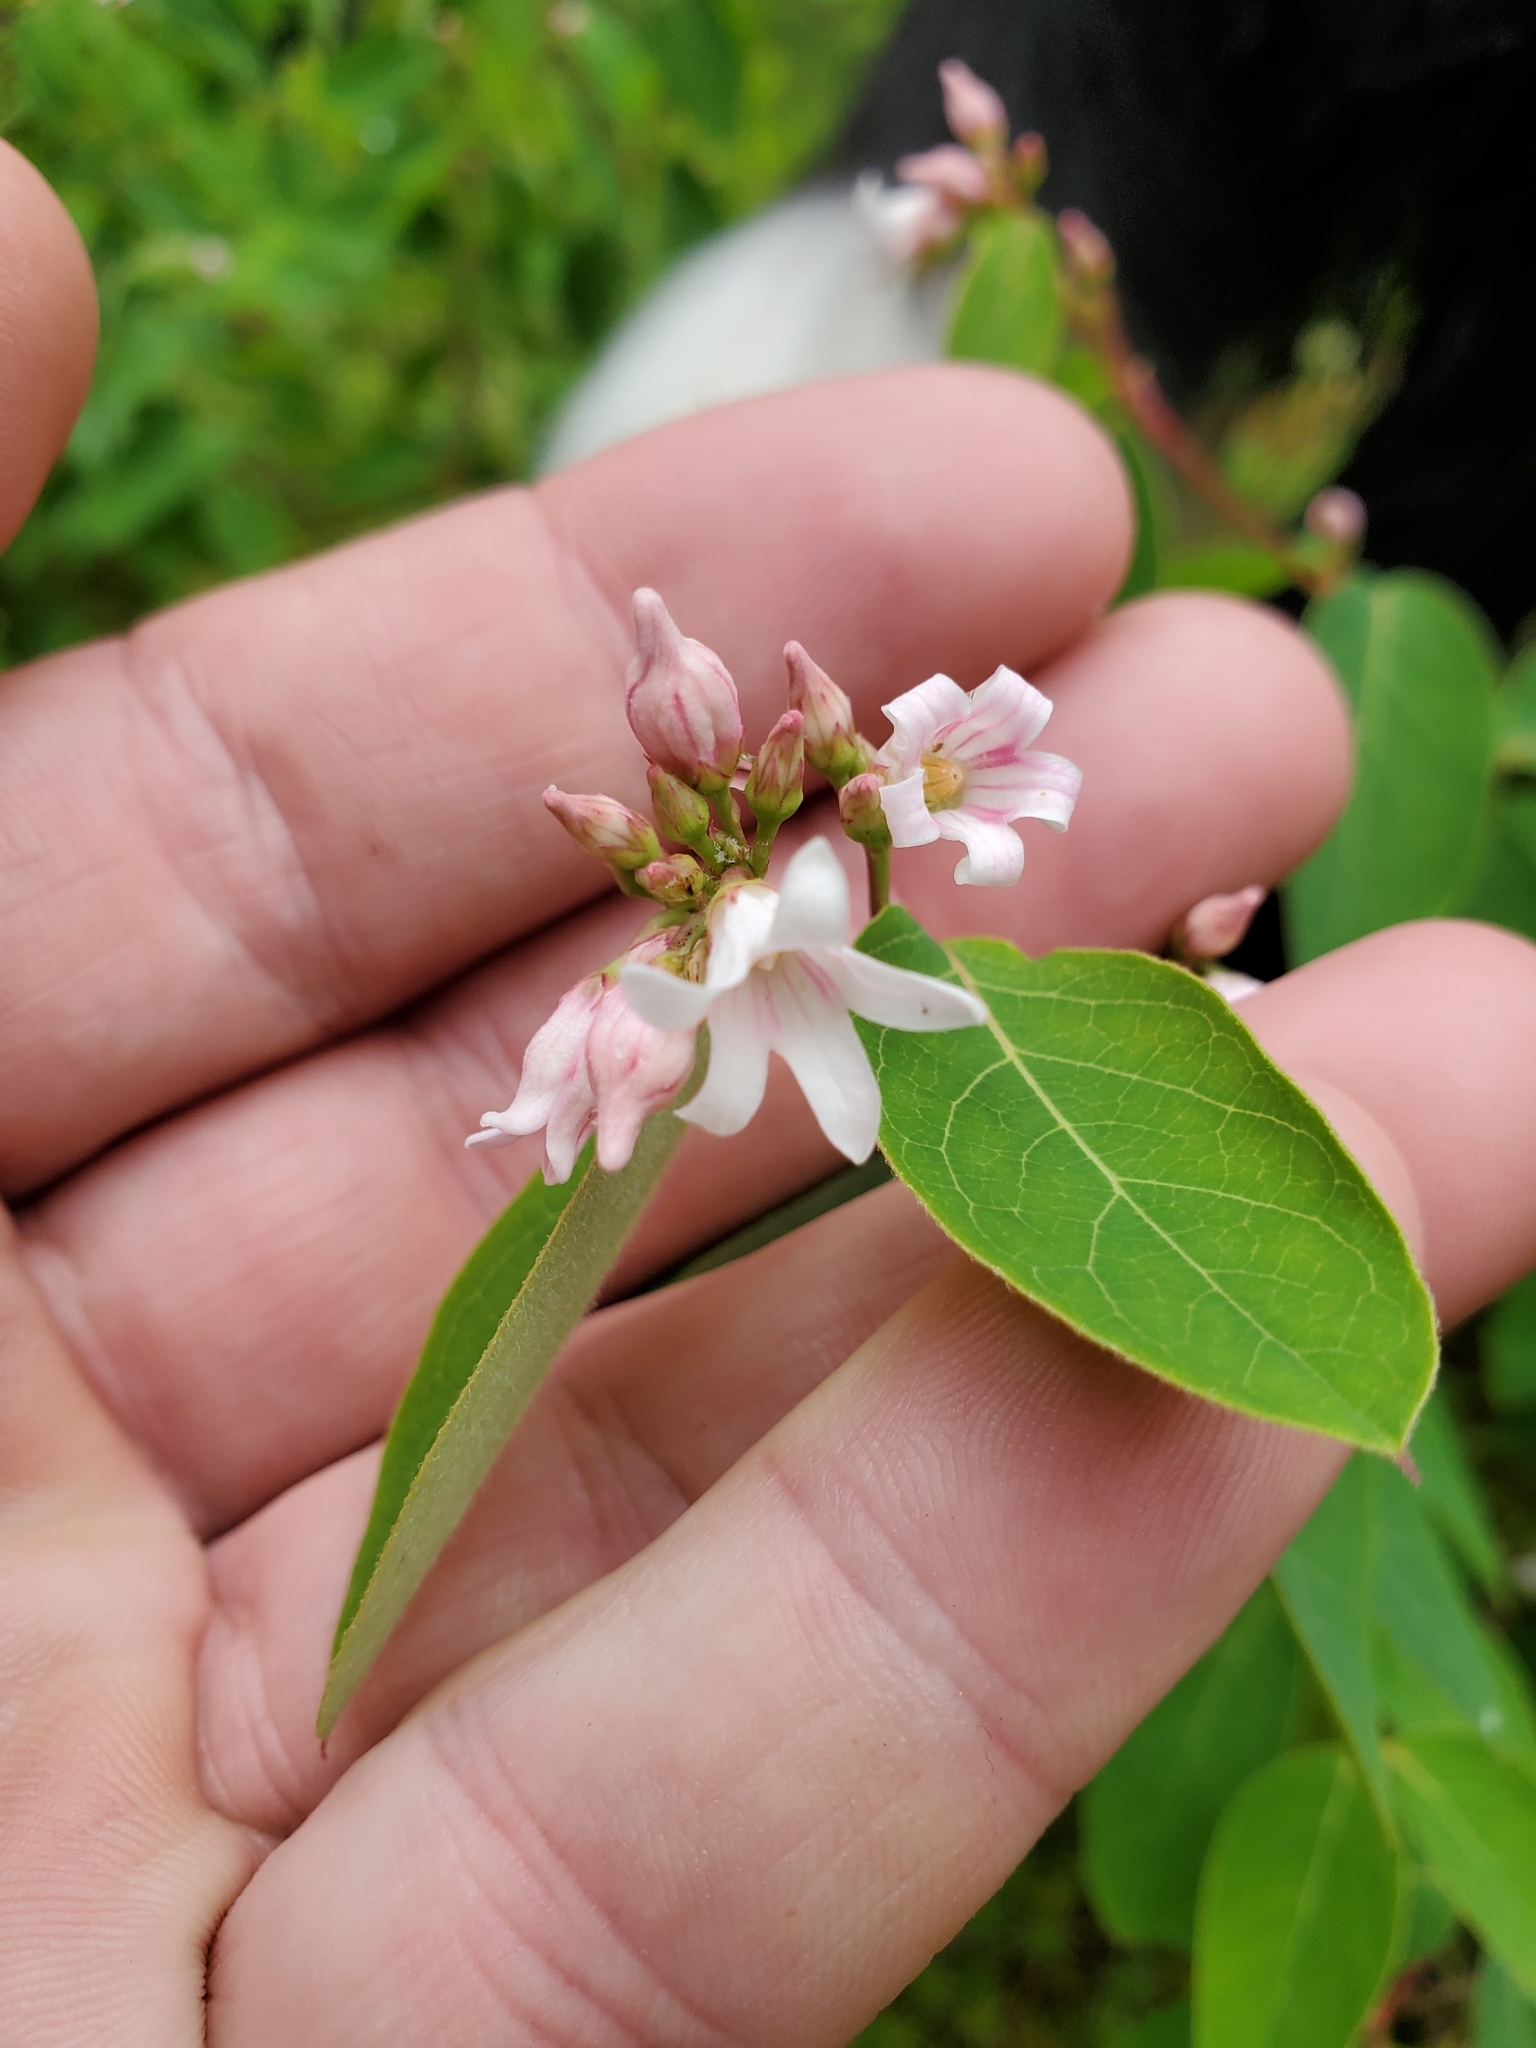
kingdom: Plantae
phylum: Tracheophyta
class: Magnoliopsida
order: Gentianales
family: Apocynaceae
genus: Apocynum
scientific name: Apocynum androsaemifolium
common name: Spreading dogbane
